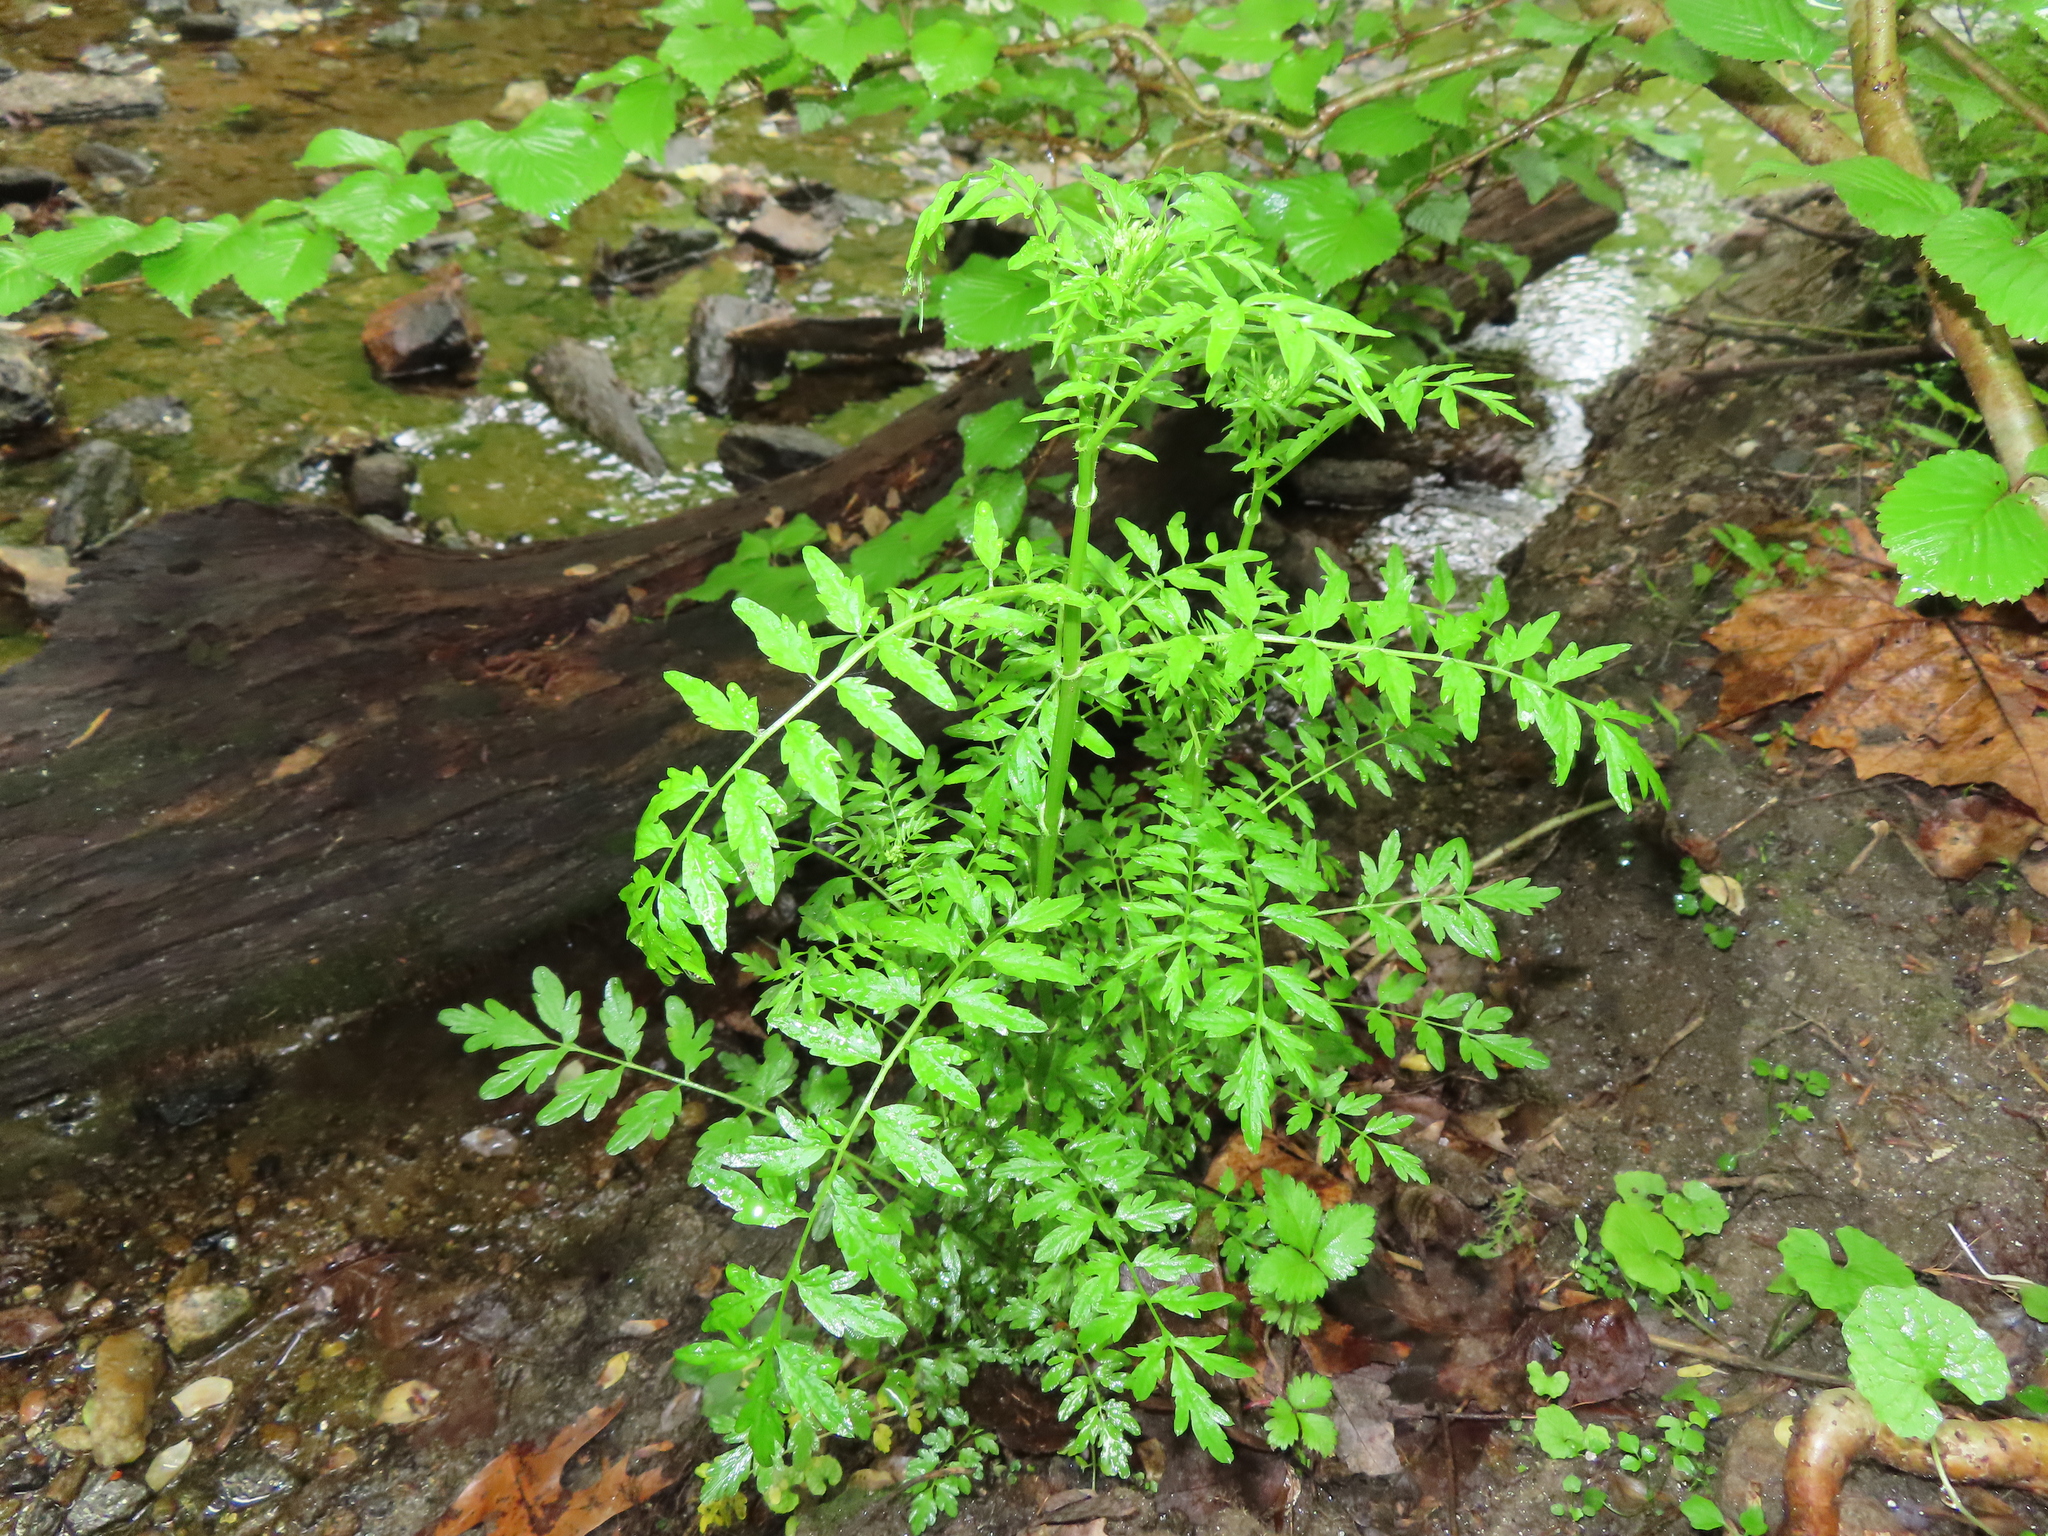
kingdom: Plantae
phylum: Tracheophyta
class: Magnoliopsida
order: Brassicales
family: Brassicaceae
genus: Cardamine
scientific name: Cardamine impatiens
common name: Narrow-leaved bitter-cress
